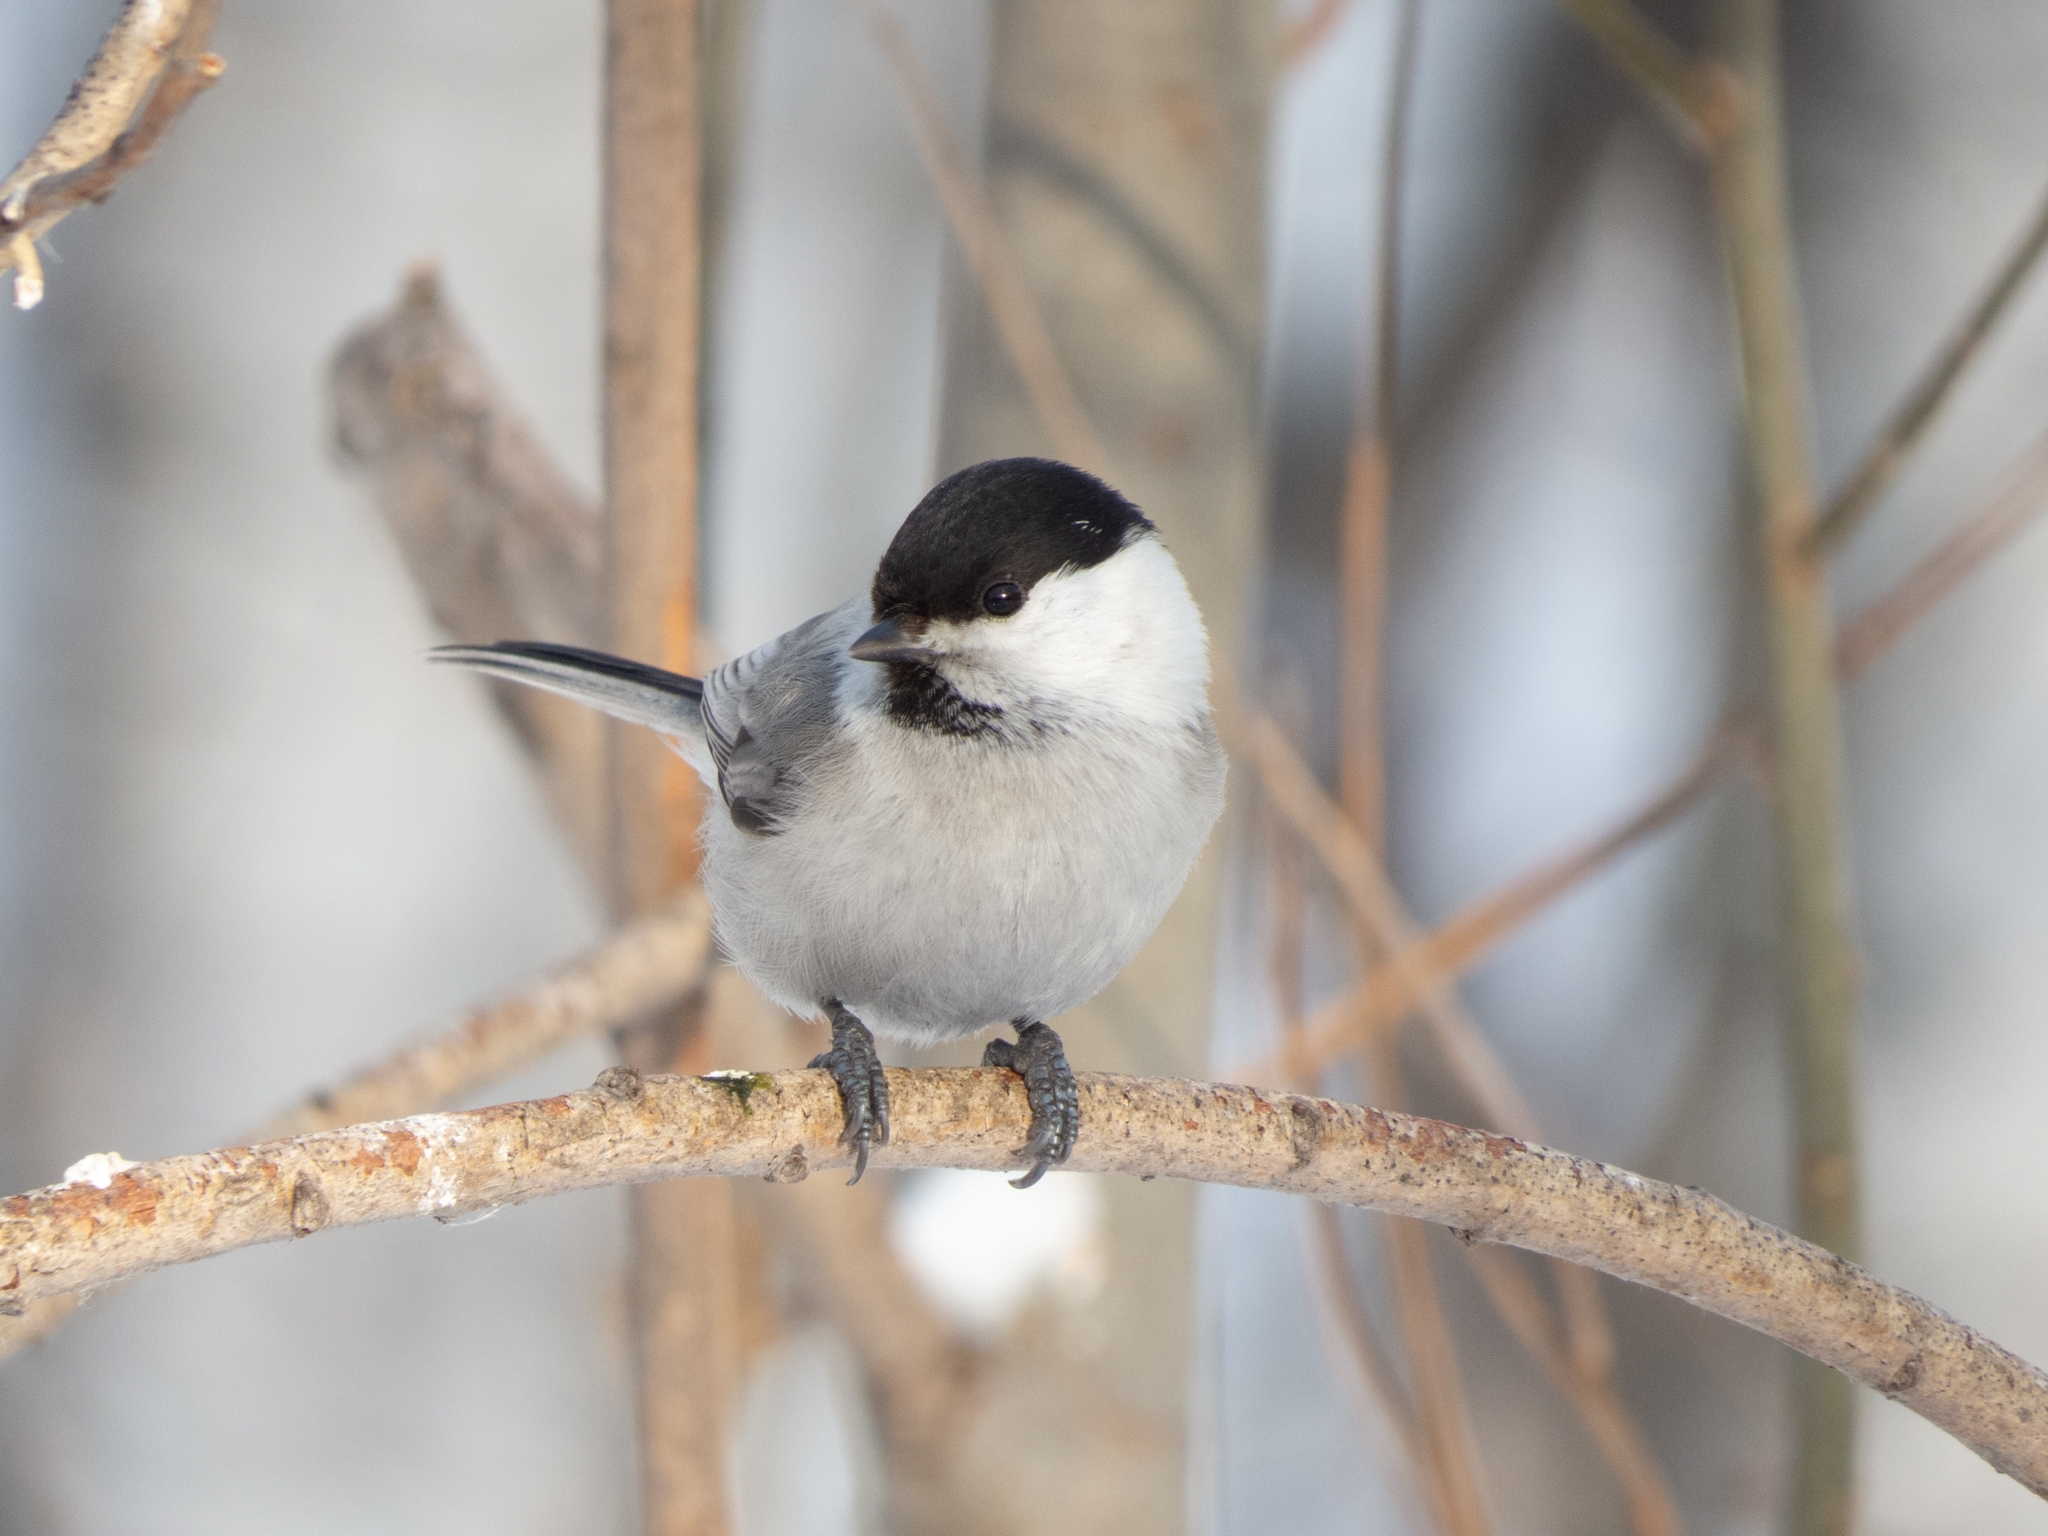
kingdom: Animalia
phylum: Chordata
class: Aves
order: Passeriformes
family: Paridae
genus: Poecile
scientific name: Poecile montanus
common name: Willow tit
